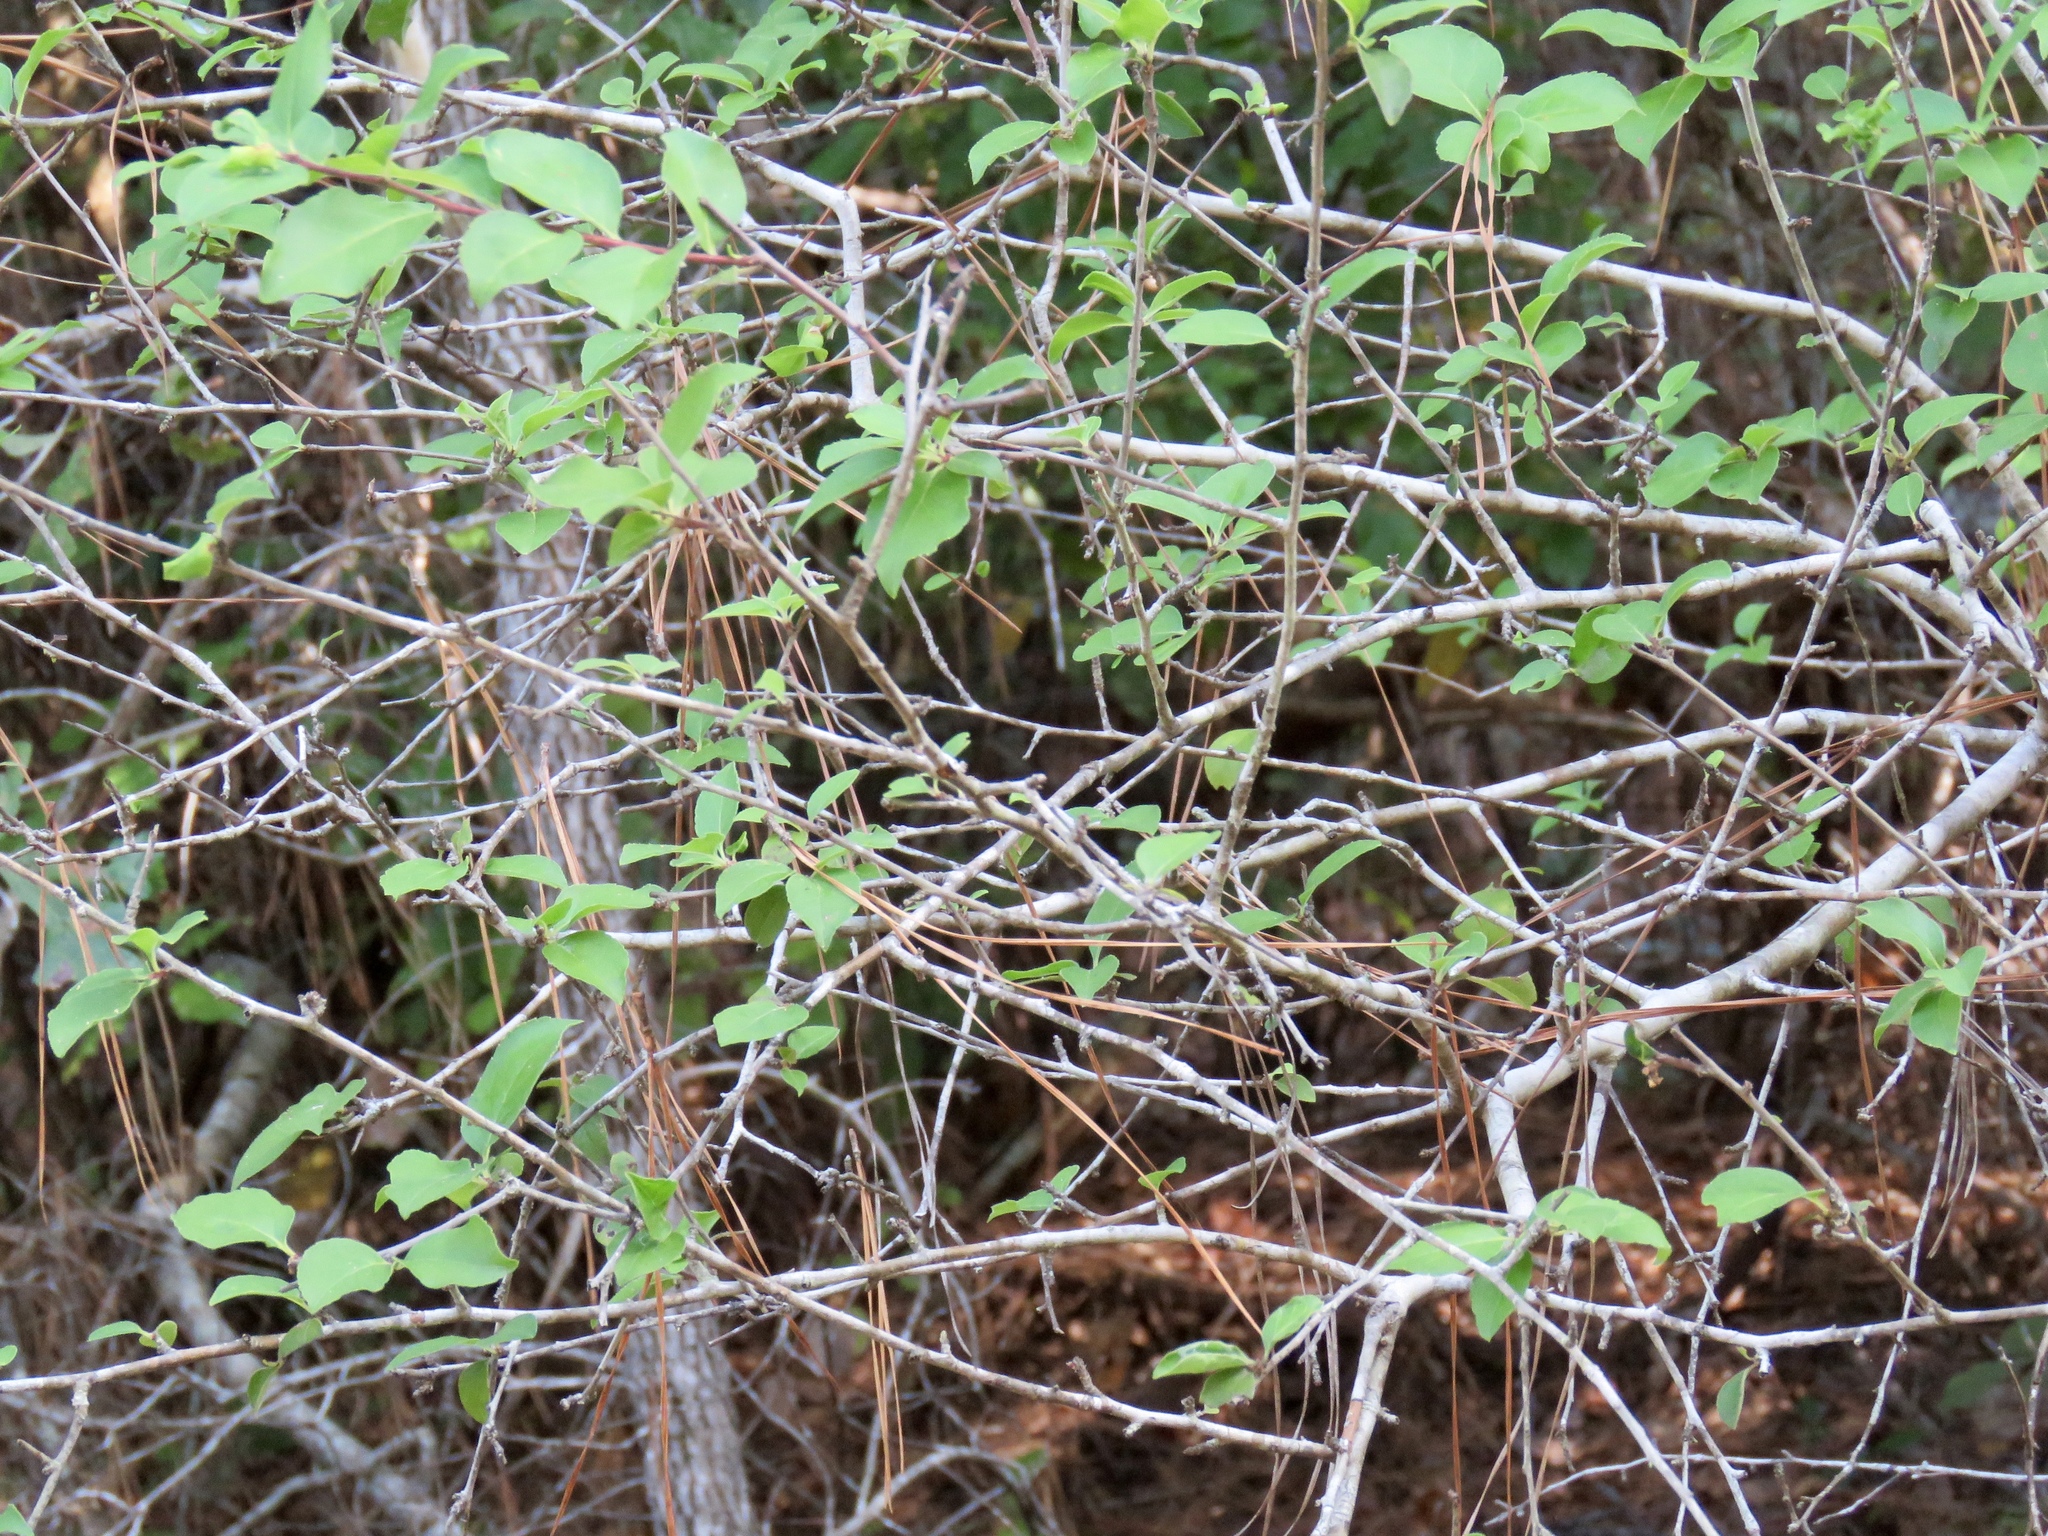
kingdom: Plantae
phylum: Tracheophyta
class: Magnoliopsida
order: Aquifoliales
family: Aquifoliaceae
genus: Ilex
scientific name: Ilex ambigua
